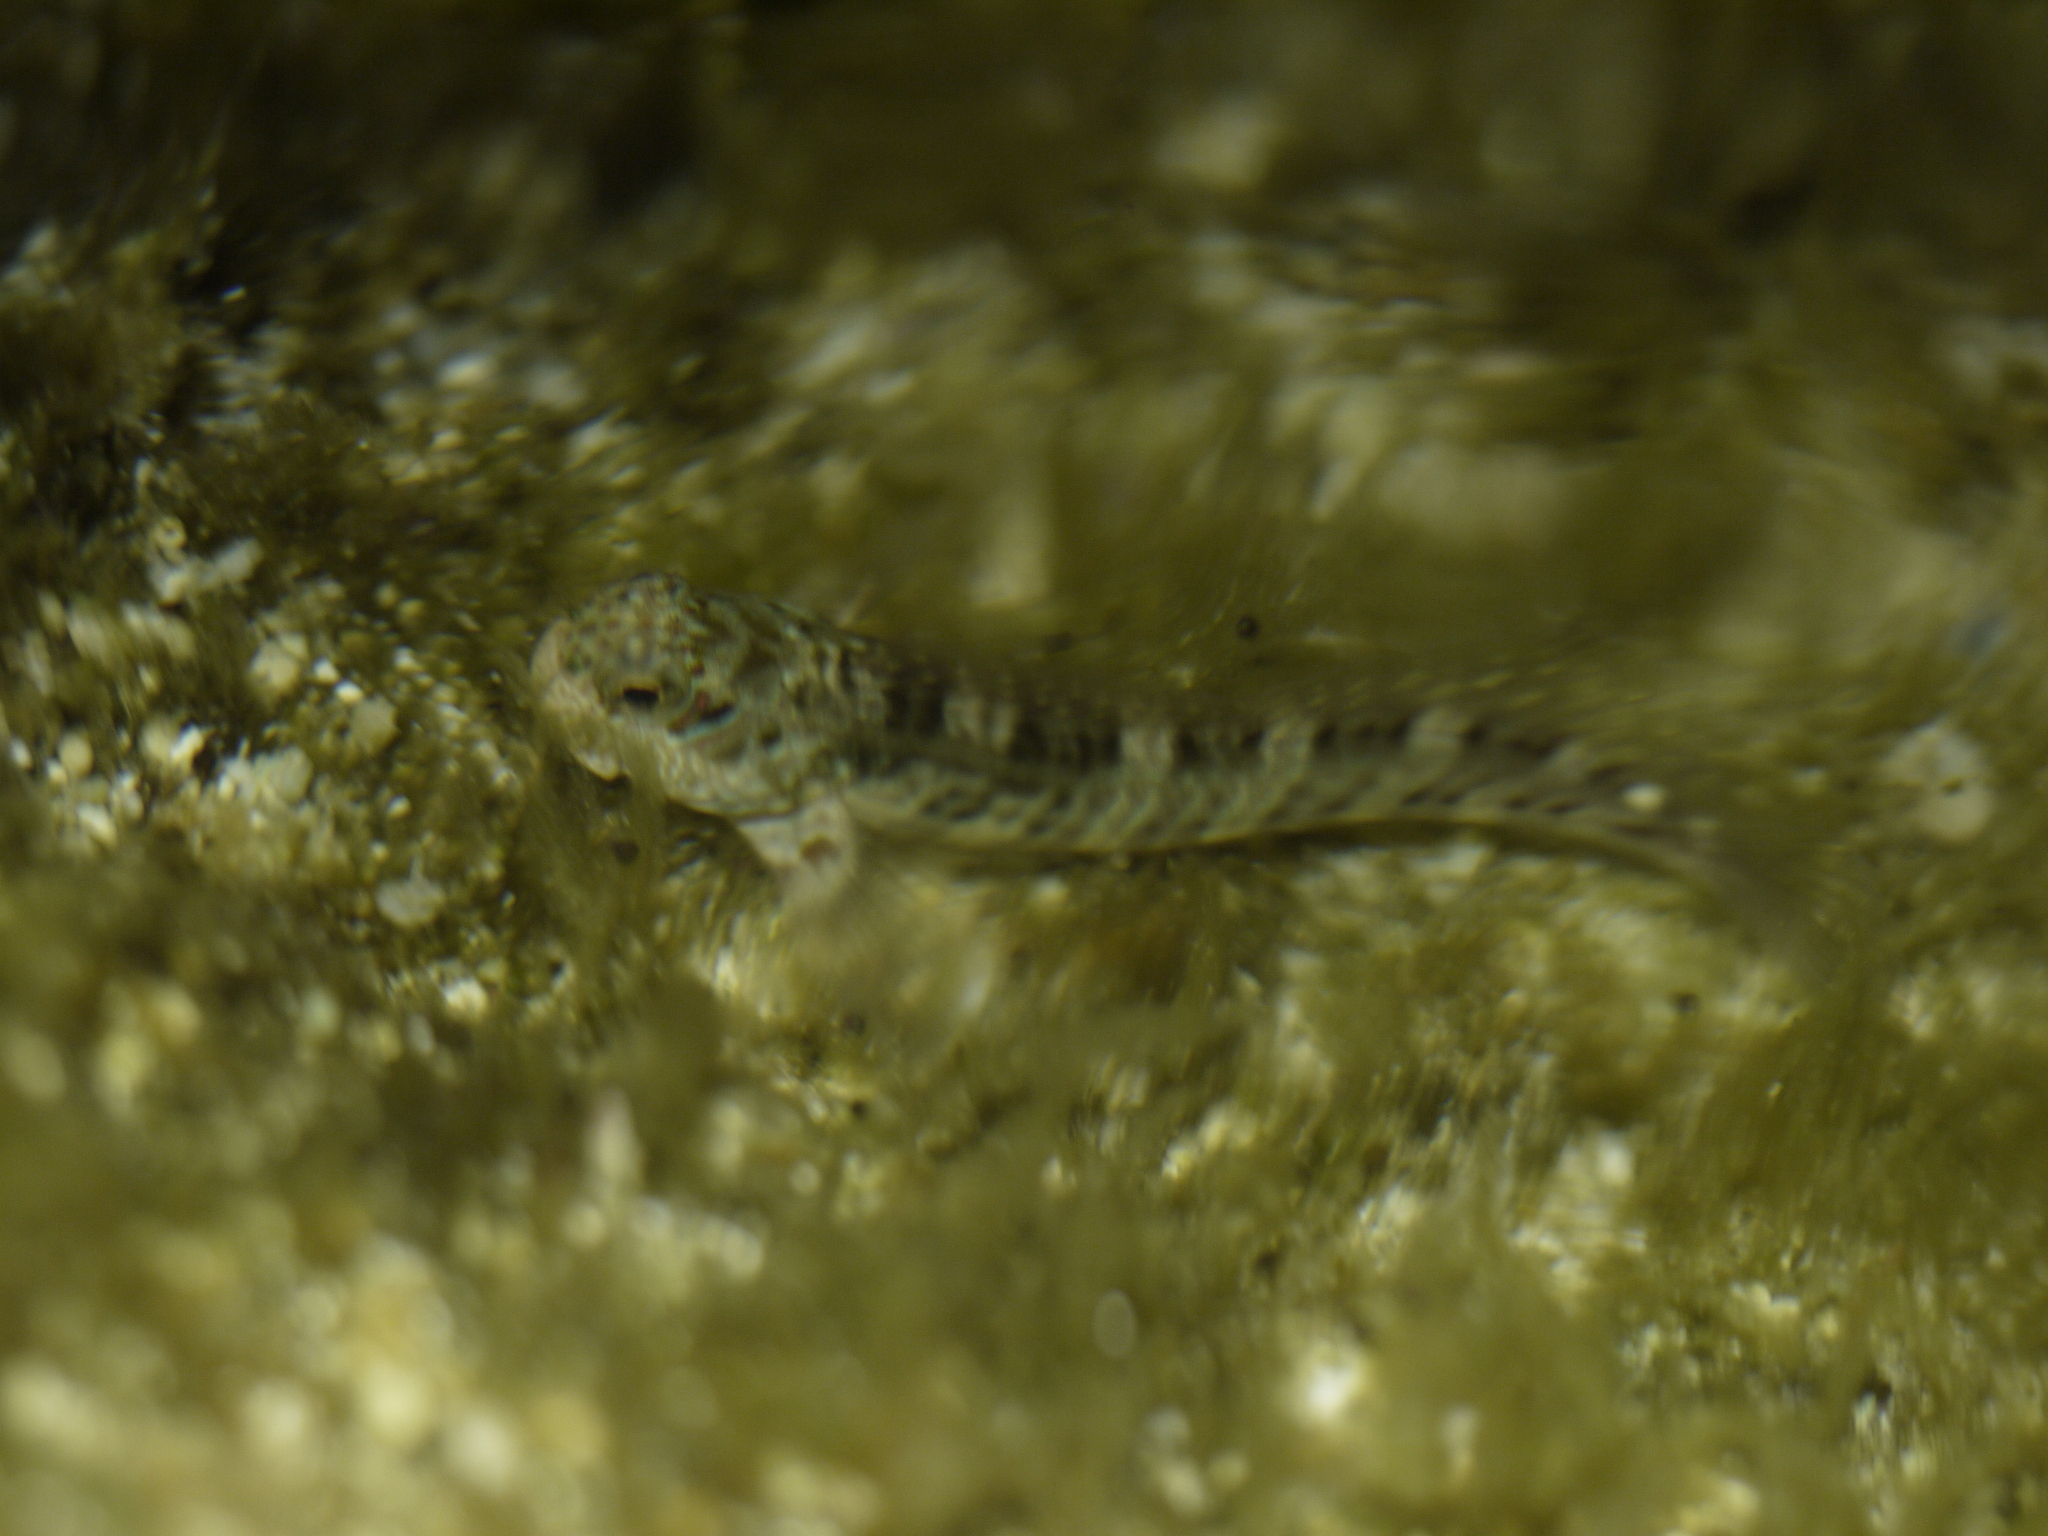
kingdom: Animalia
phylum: Chordata
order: Perciformes
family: Blenniidae
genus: Istiblennius
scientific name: Istiblennius edentulus
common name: Rippled rockskipper
